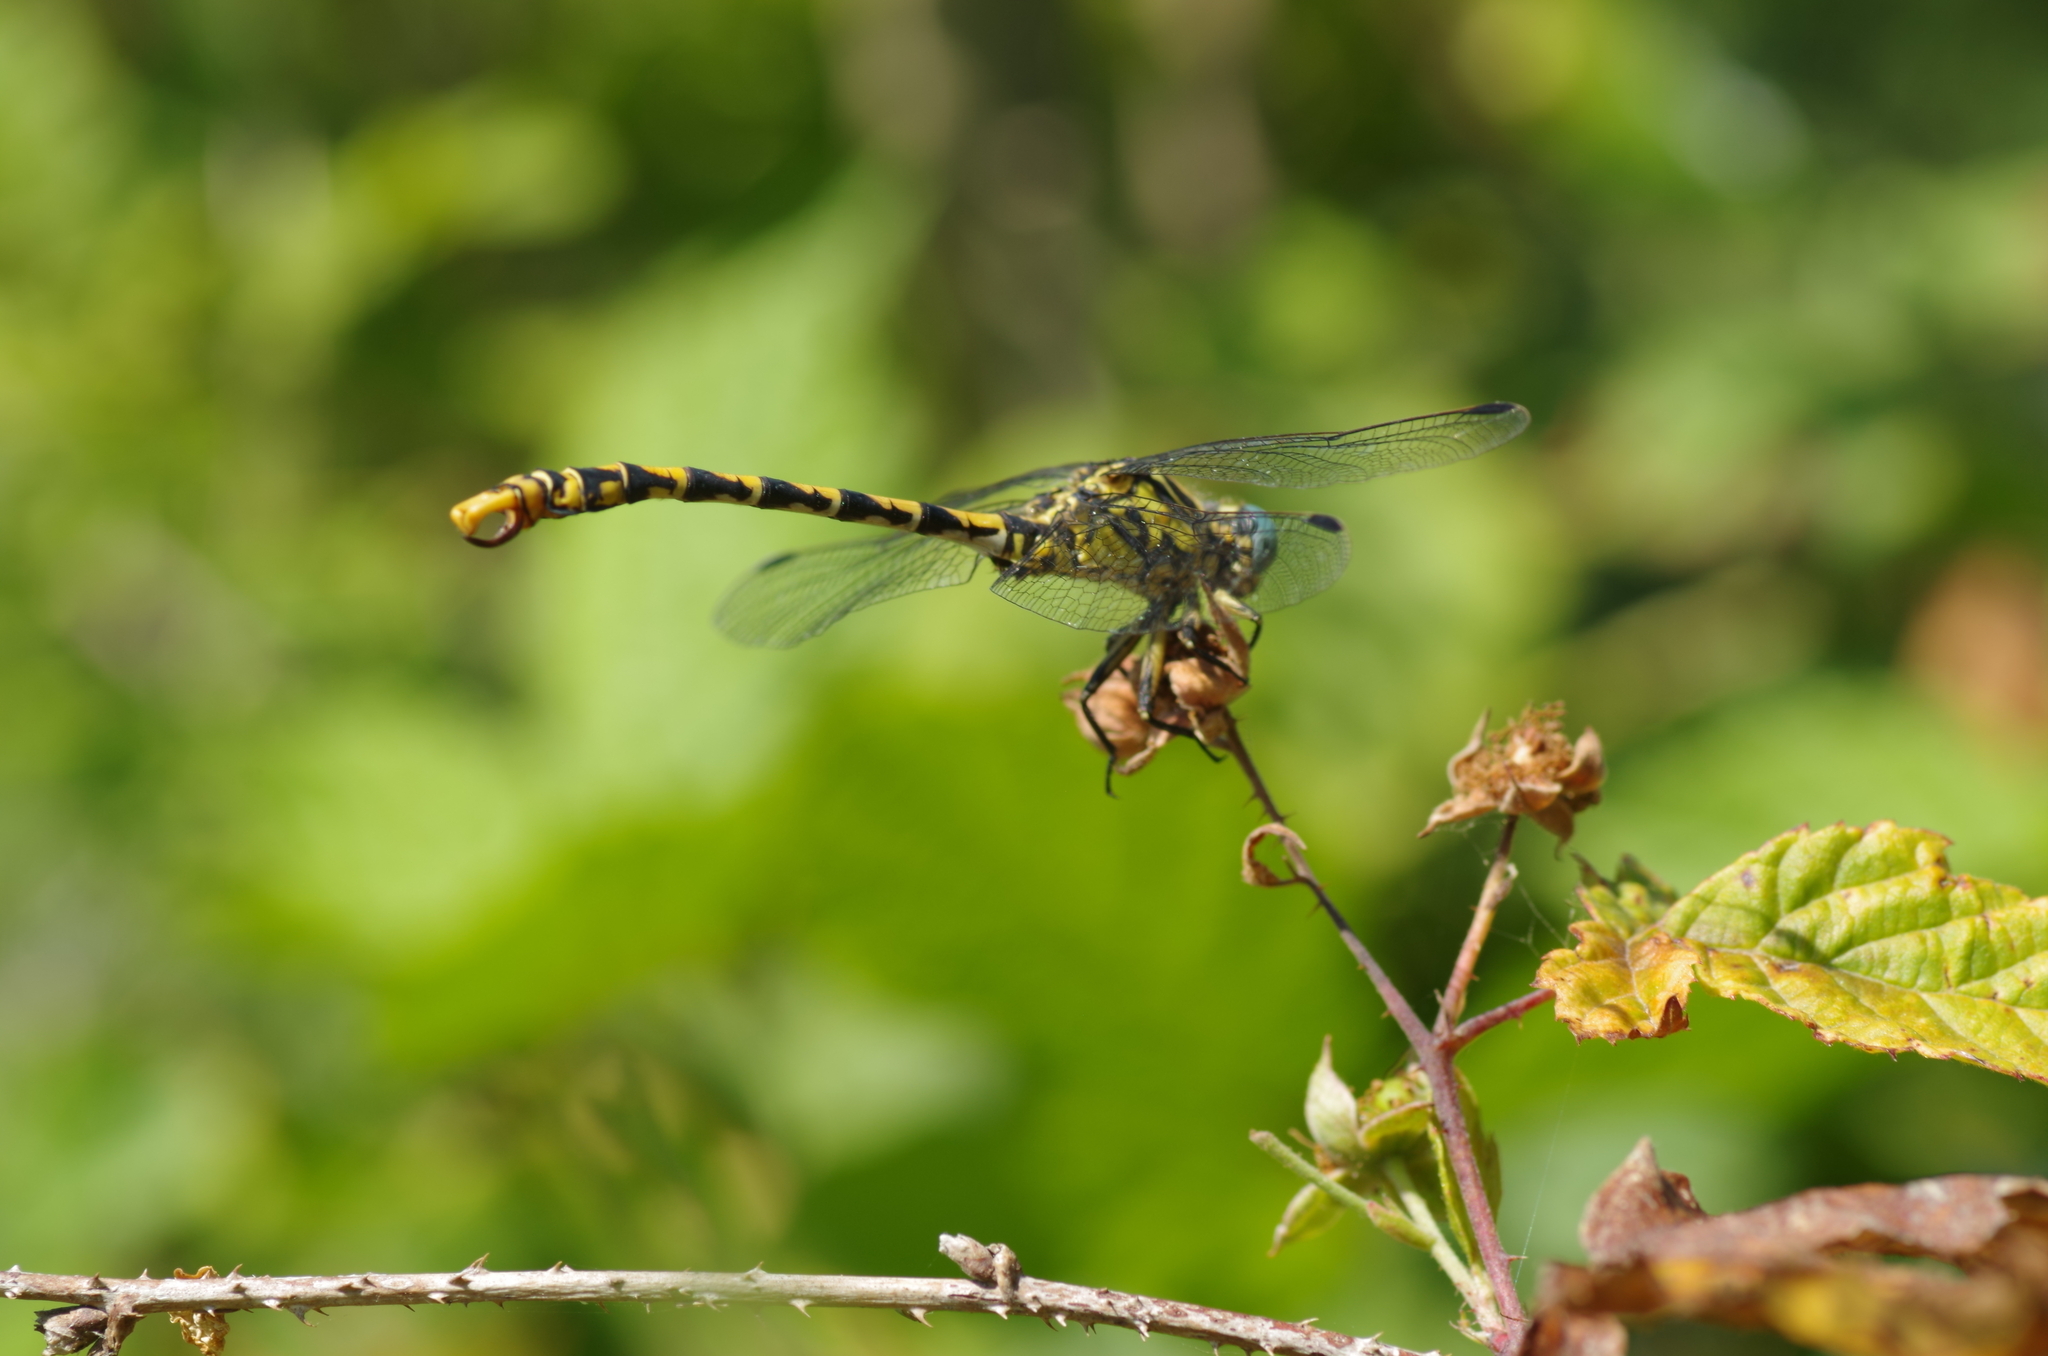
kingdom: Animalia
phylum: Arthropoda
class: Insecta
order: Odonata
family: Gomphidae
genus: Onychogomphus
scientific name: Onychogomphus uncatus
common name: Large pincertail
